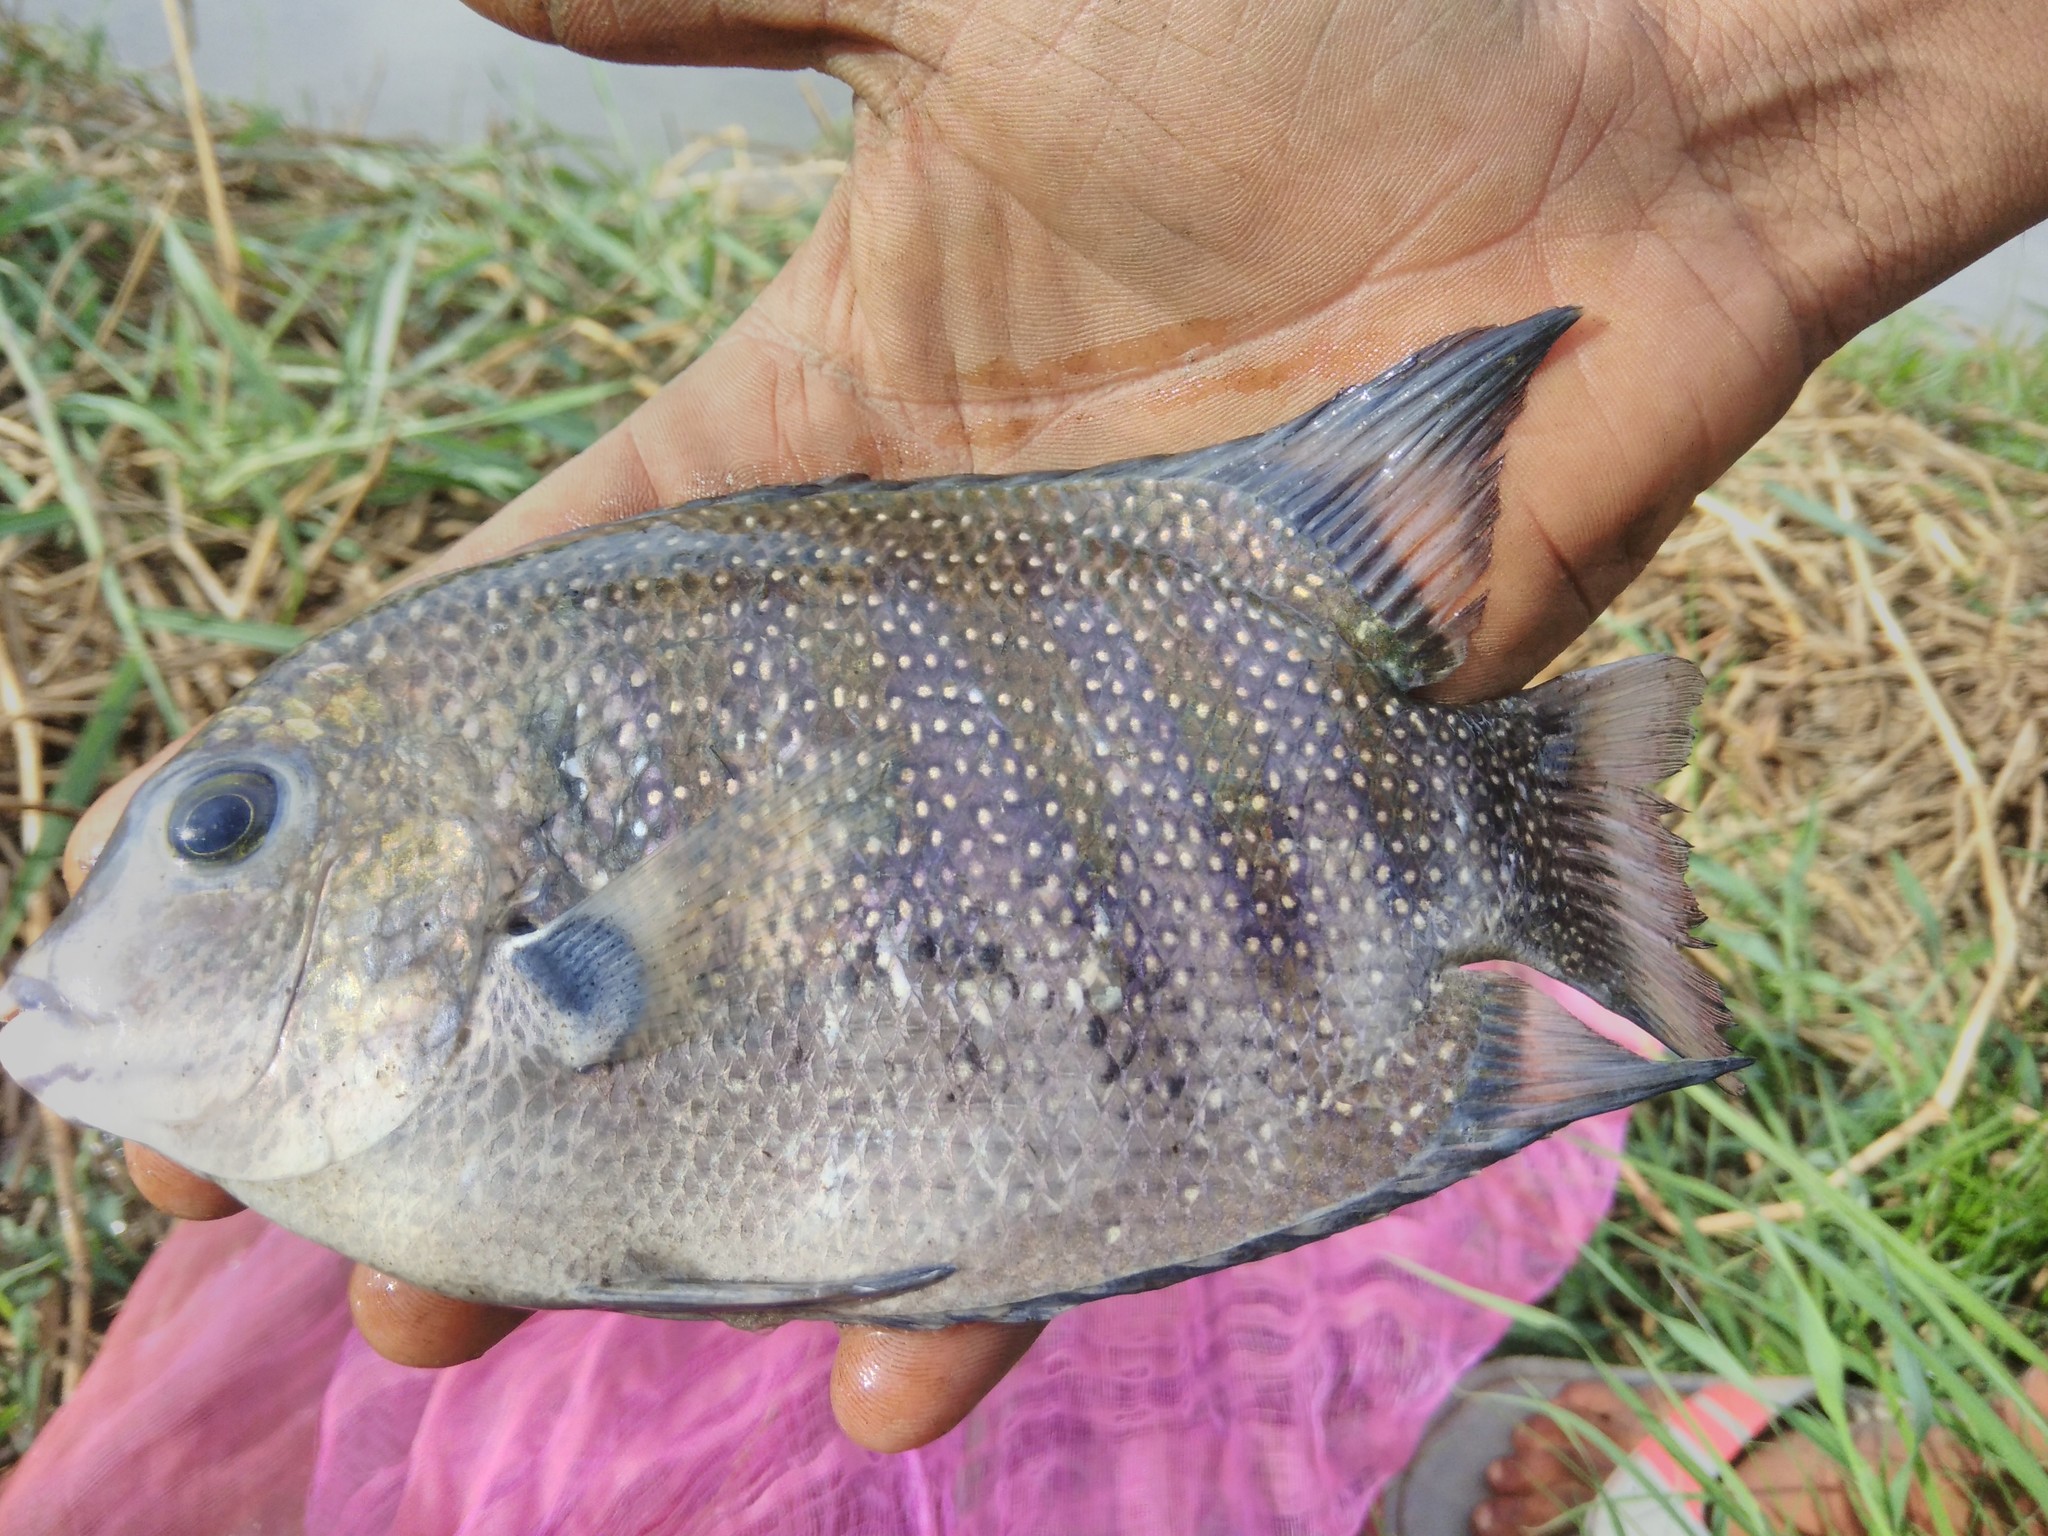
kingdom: Animalia
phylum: Chordata
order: Perciformes
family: Cichlidae
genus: Etroplus
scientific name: Etroplus suratensis
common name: Green chromide
